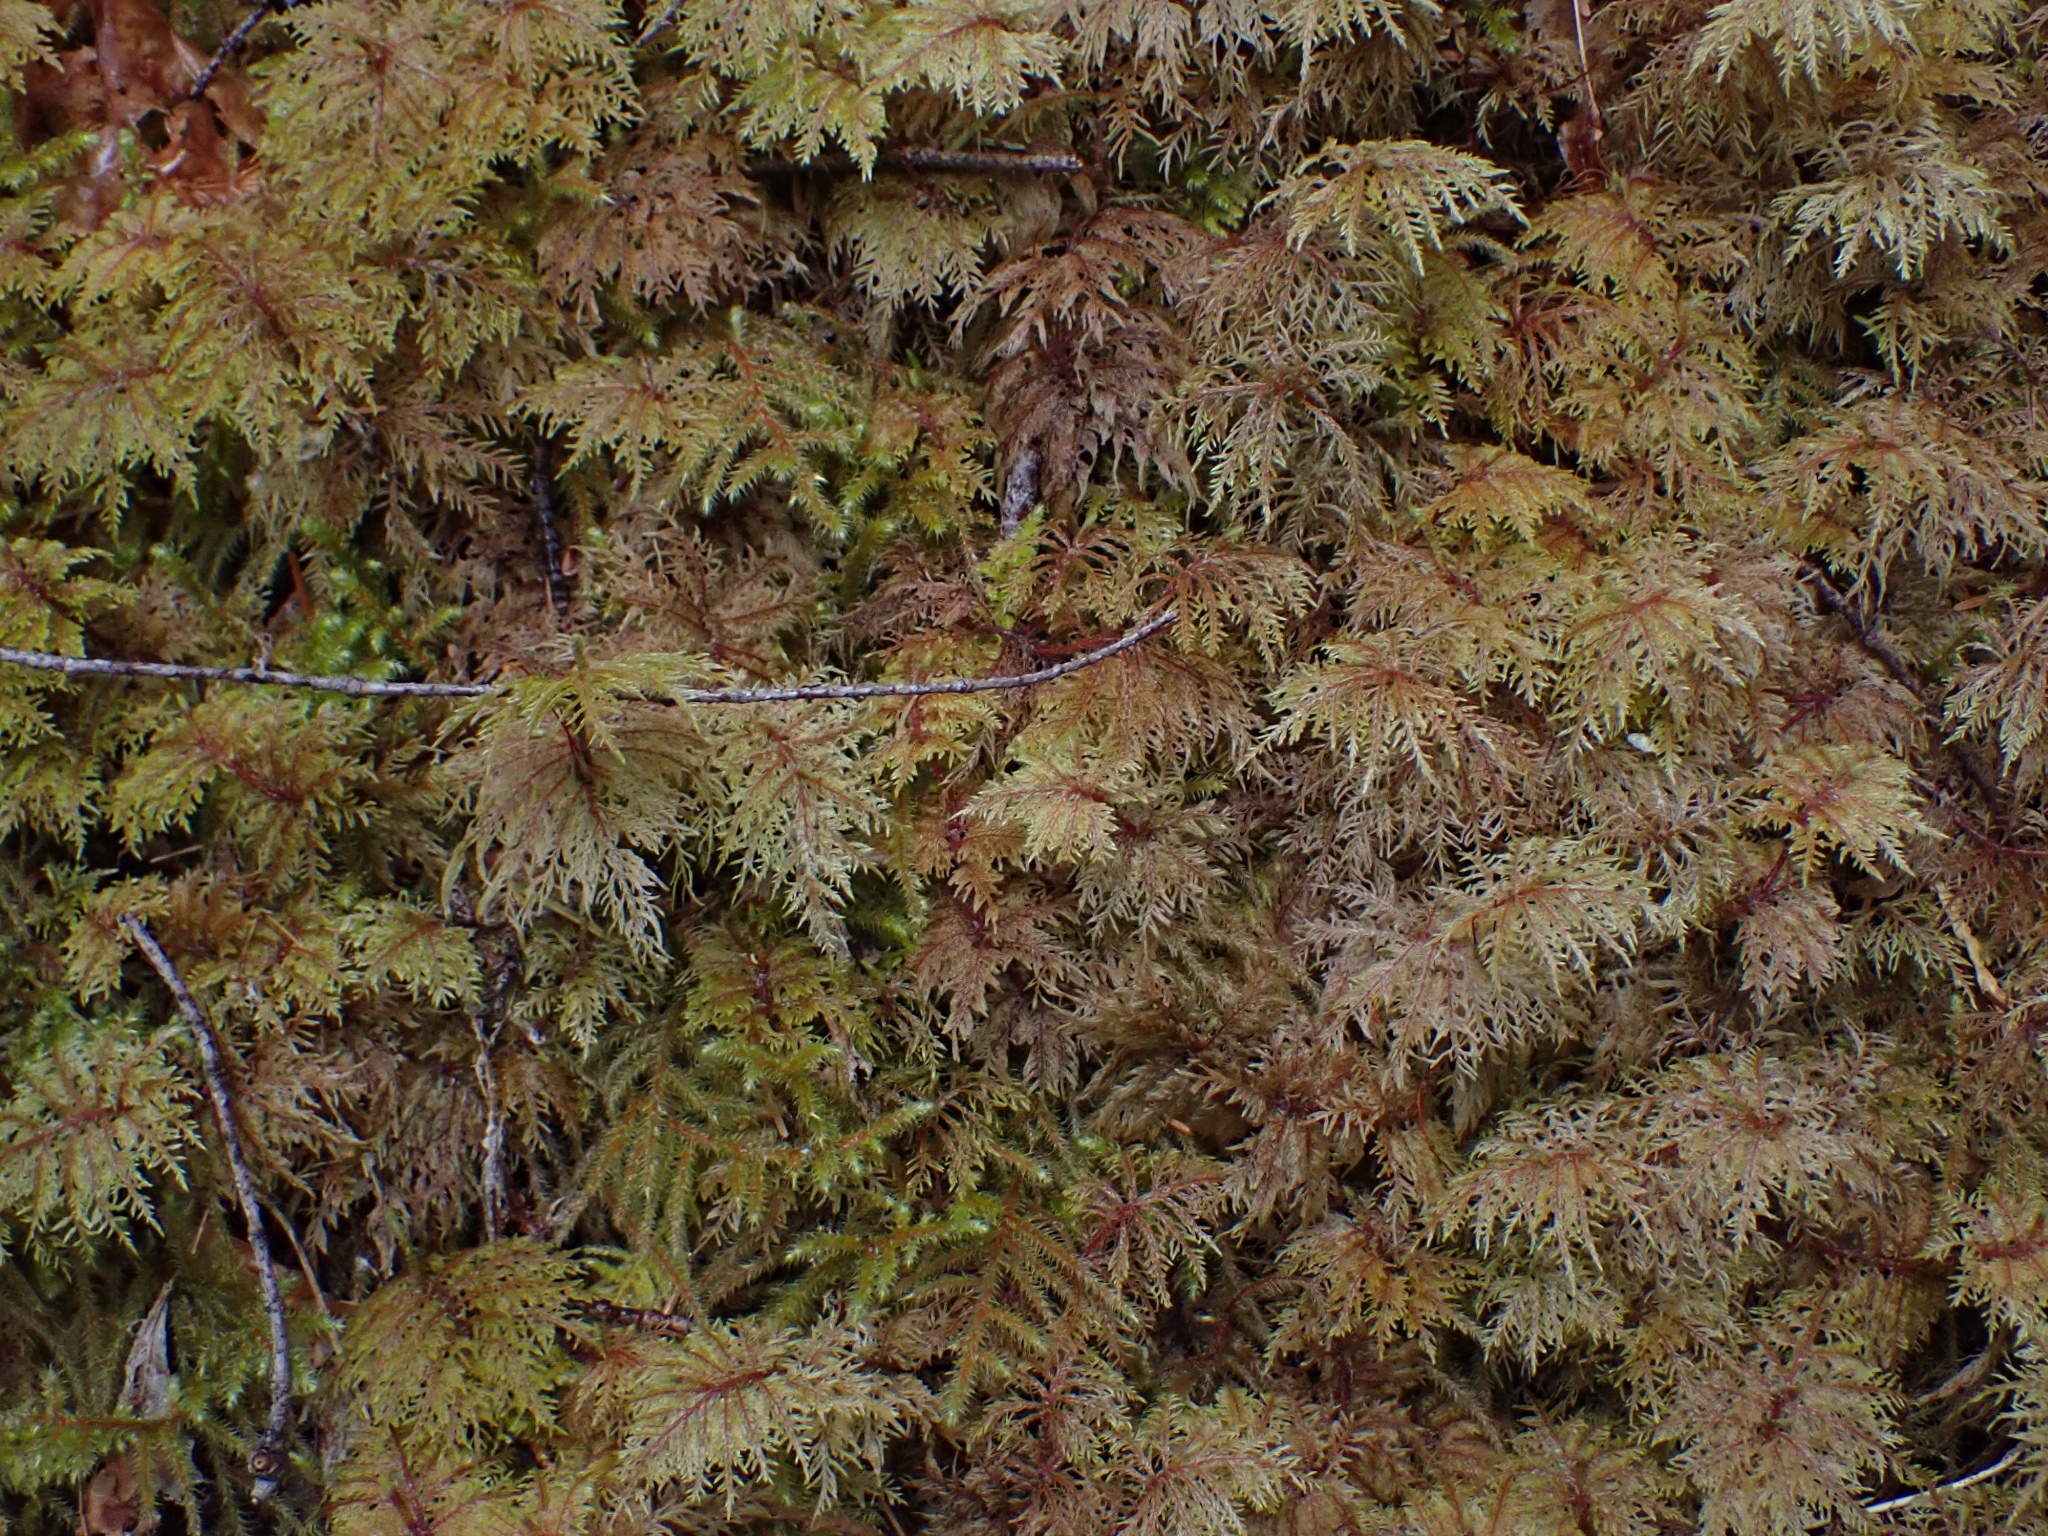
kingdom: Plantae
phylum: Bryophyta
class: Bryopsida
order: Hypnales
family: Hylocomiaceae
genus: Hylocomium
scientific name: Hylocomium splendens
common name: Stairstep moss
